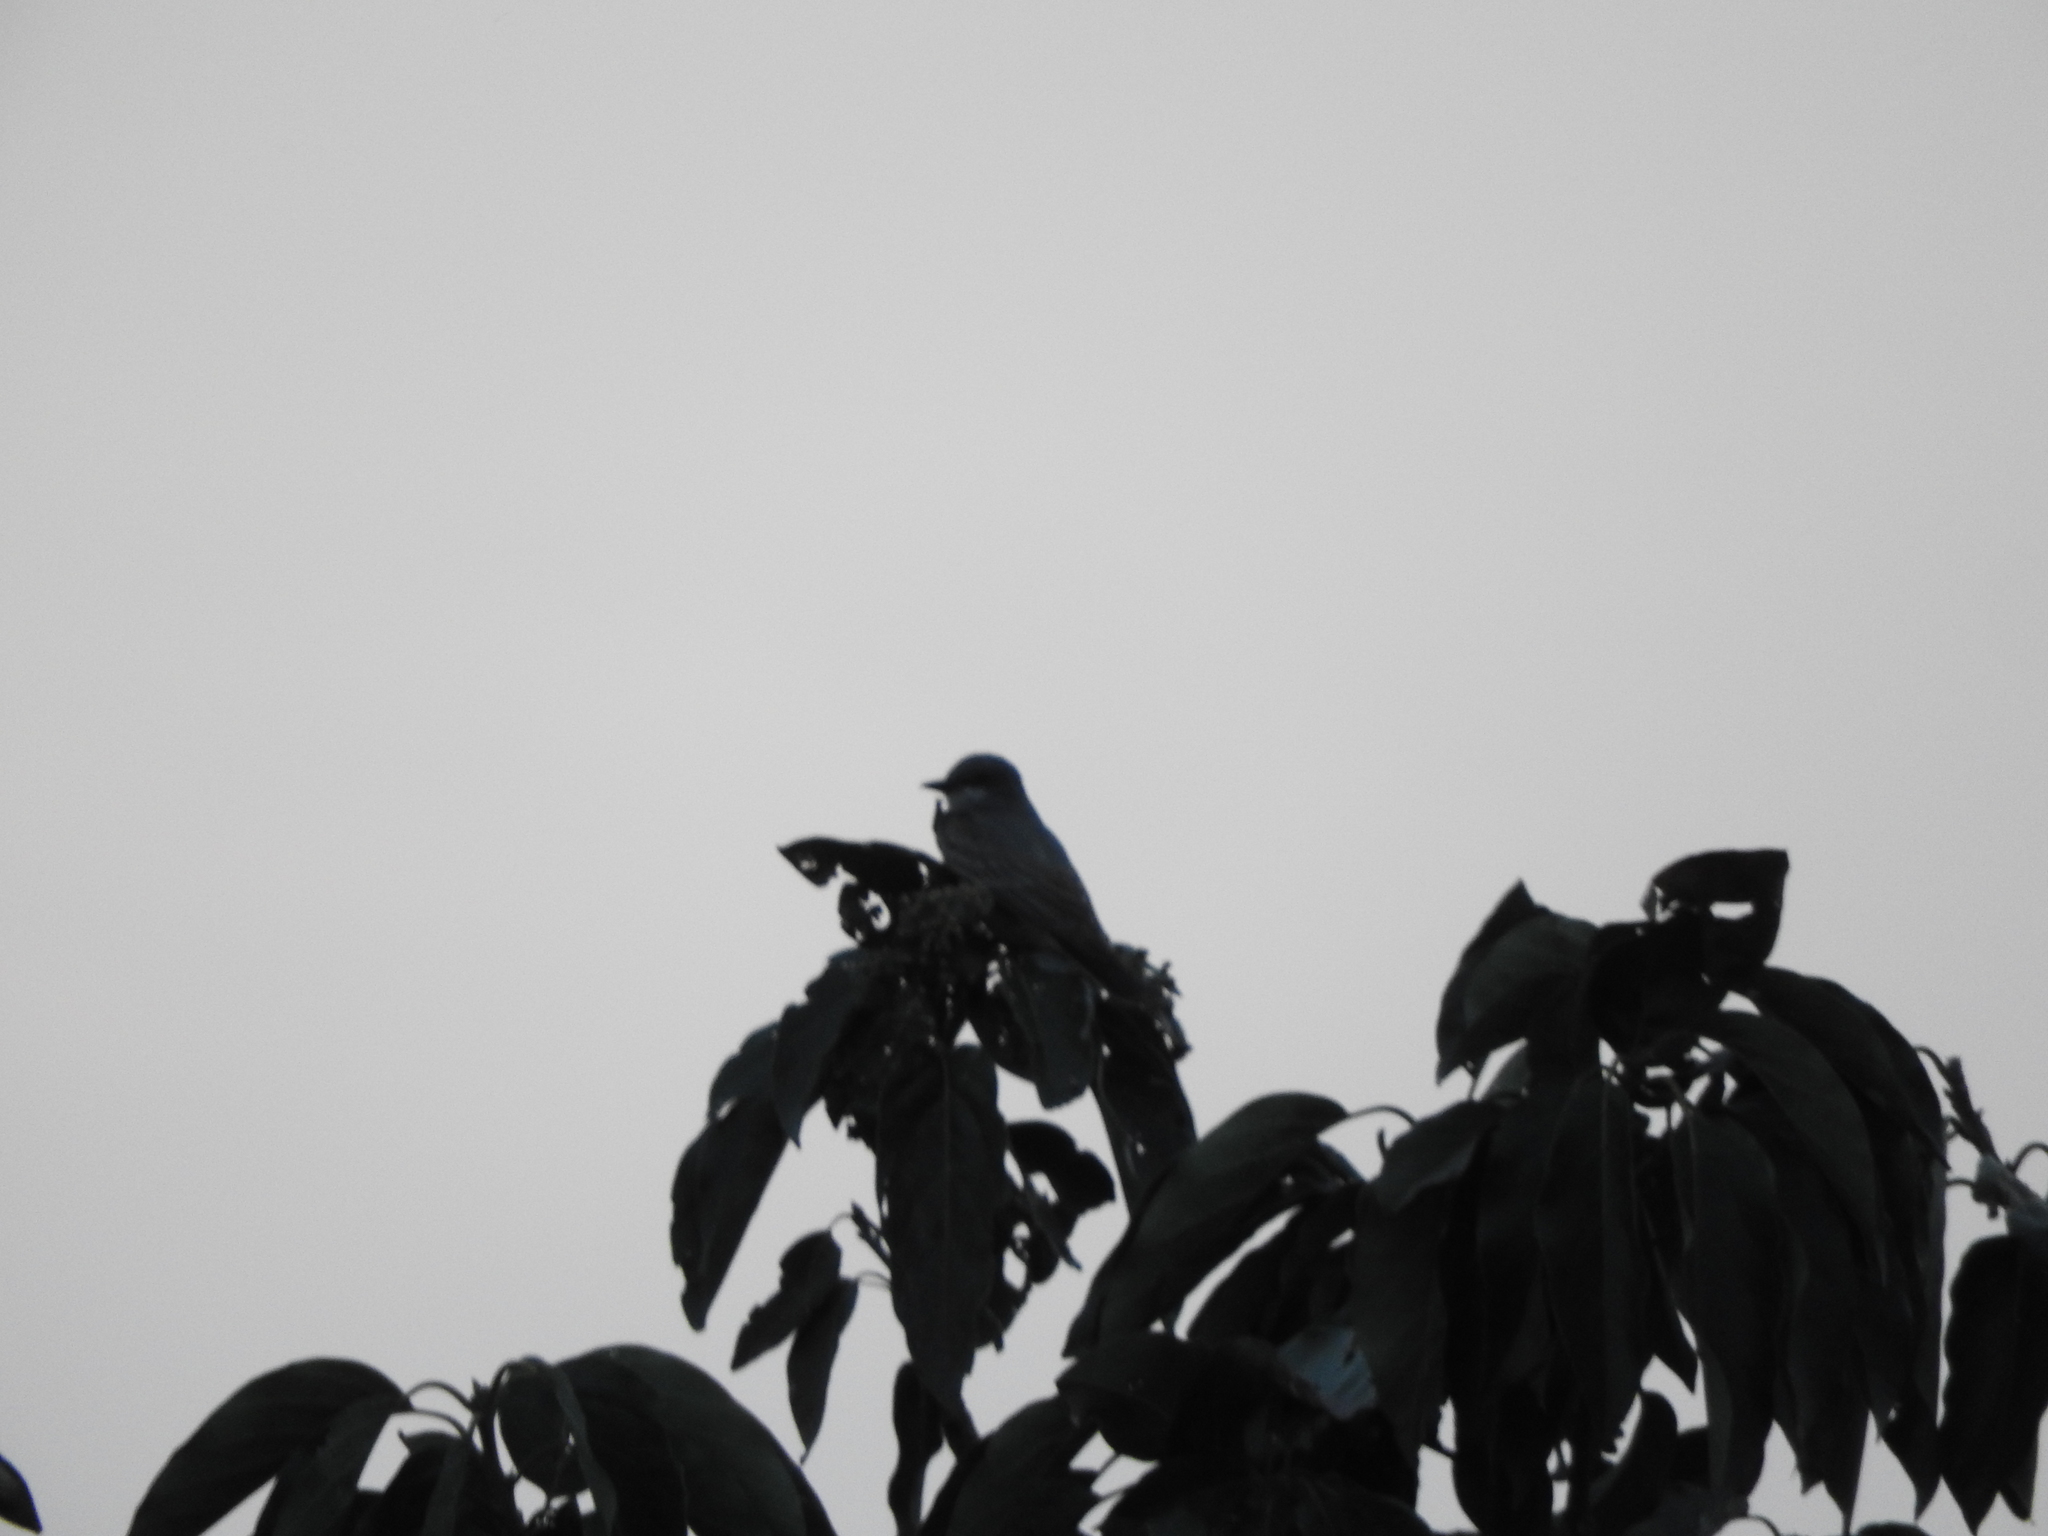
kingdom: Animalia
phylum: Chordata
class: Aves
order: Passeriformes
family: Tyrannidae
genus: Tyrannus
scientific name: Tyrannus vociferans
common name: Cassin's kingbird
